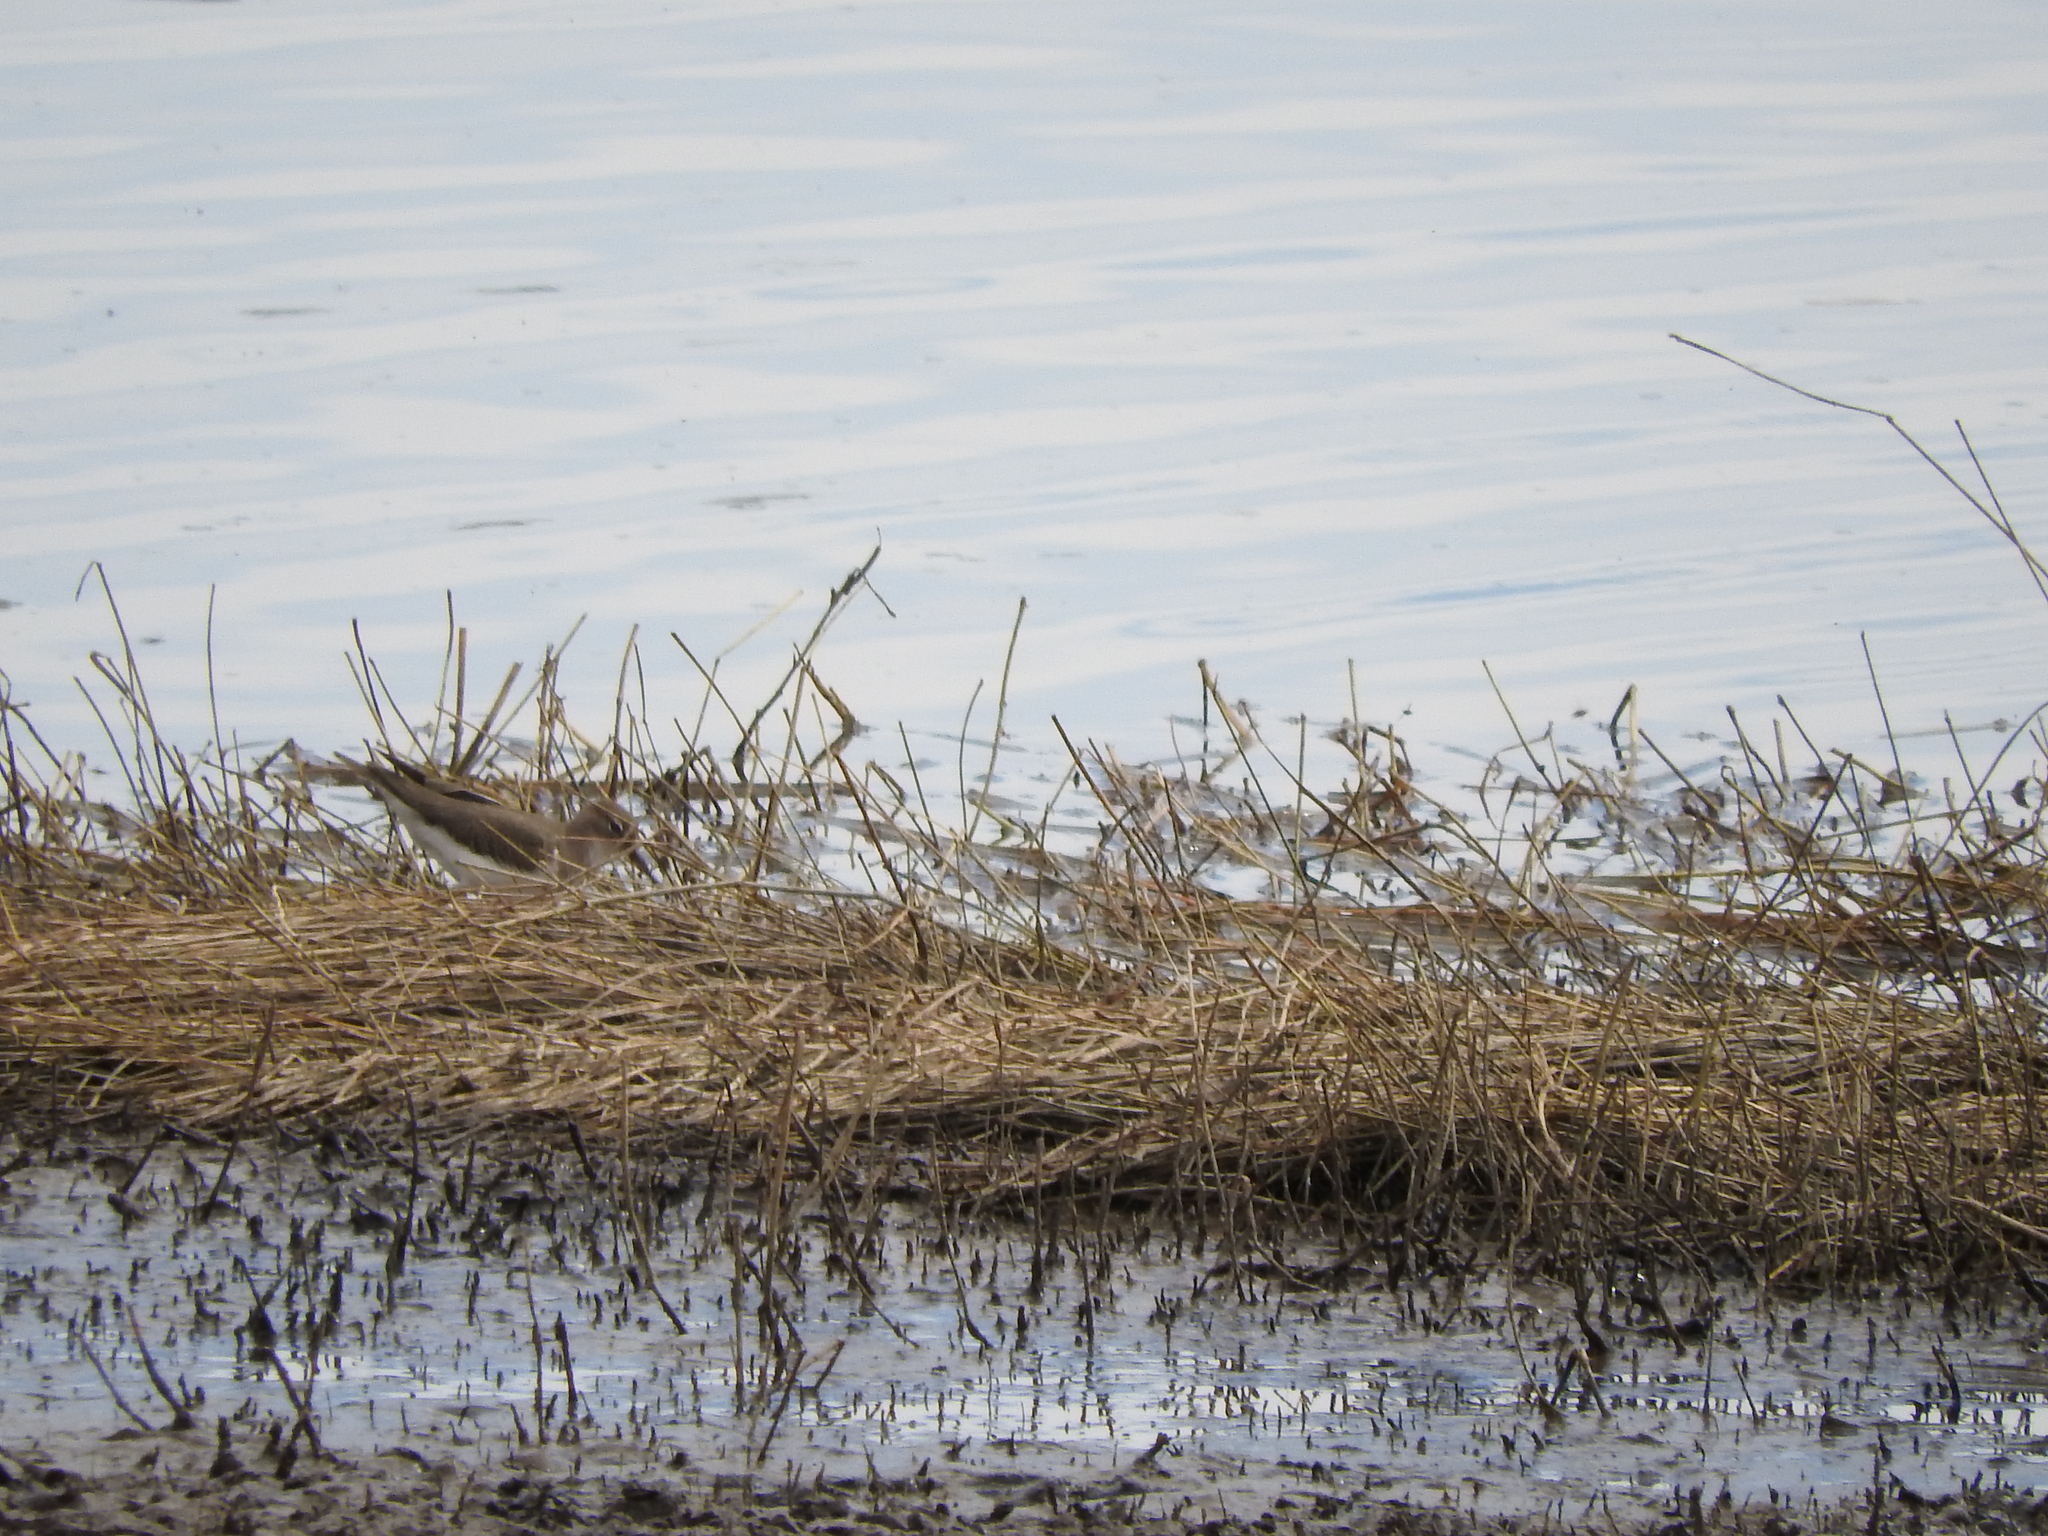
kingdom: Animalia
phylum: Chordata
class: Aves
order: Charadriiformes
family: Scolopacidae
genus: Actitis
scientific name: Actitis macularius
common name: Spotted sandpiper
